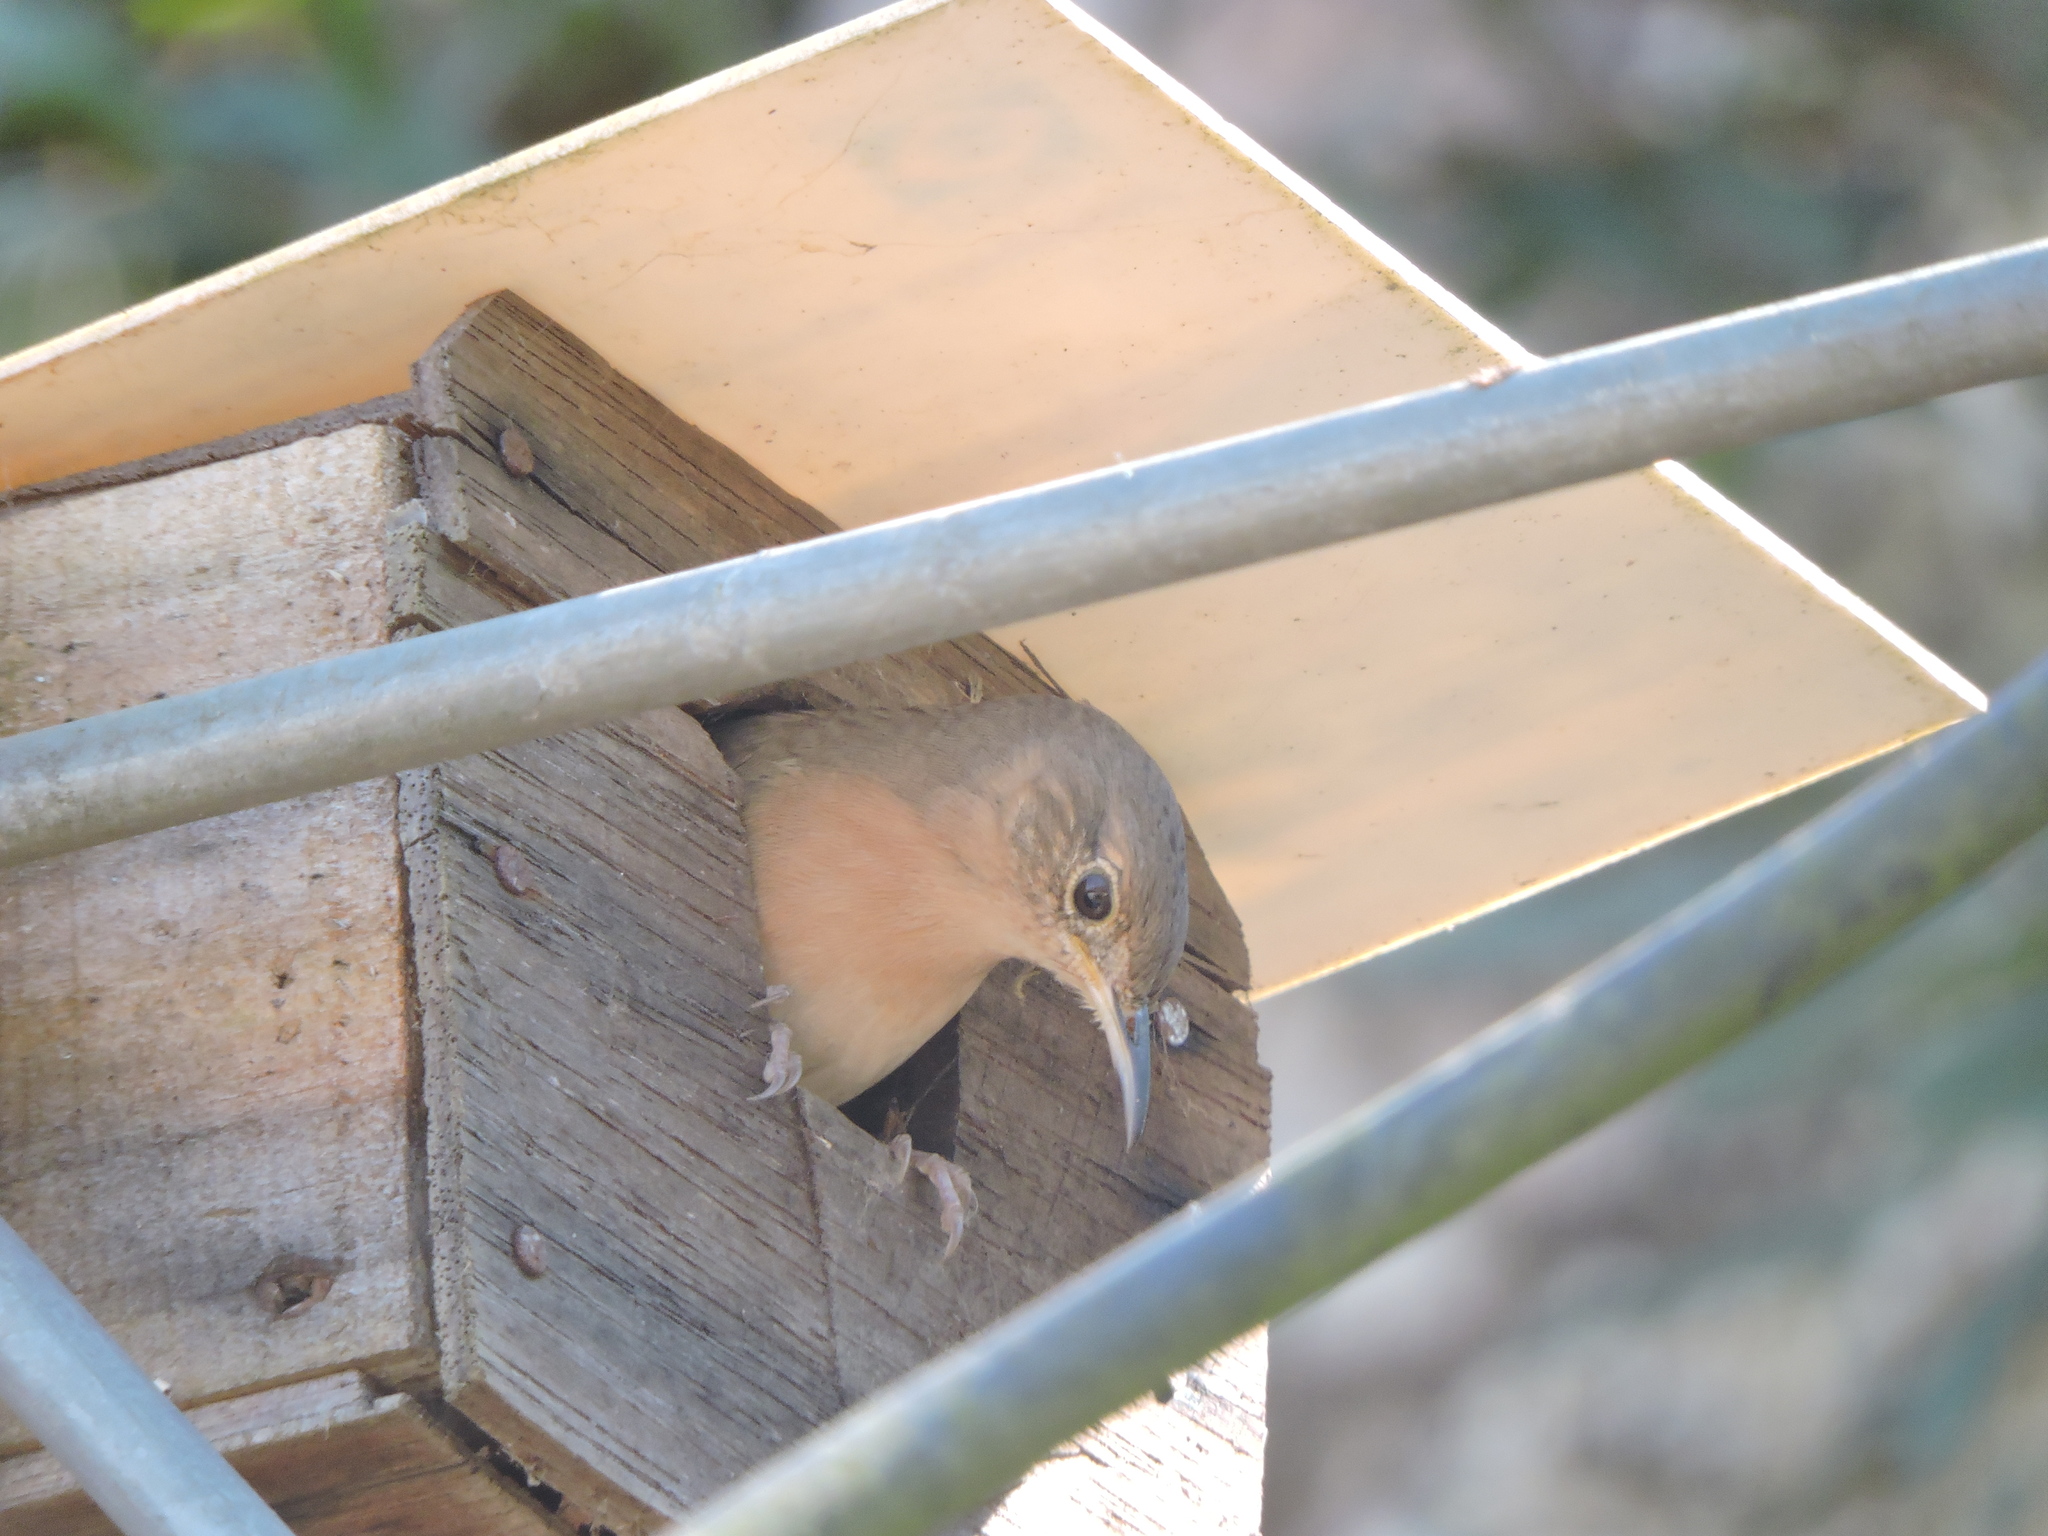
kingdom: Animalia
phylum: Chordata
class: Aves
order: Passeriformes
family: Troglodytidae
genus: Troglodytes
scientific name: Troglodytes aedon
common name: House wren
